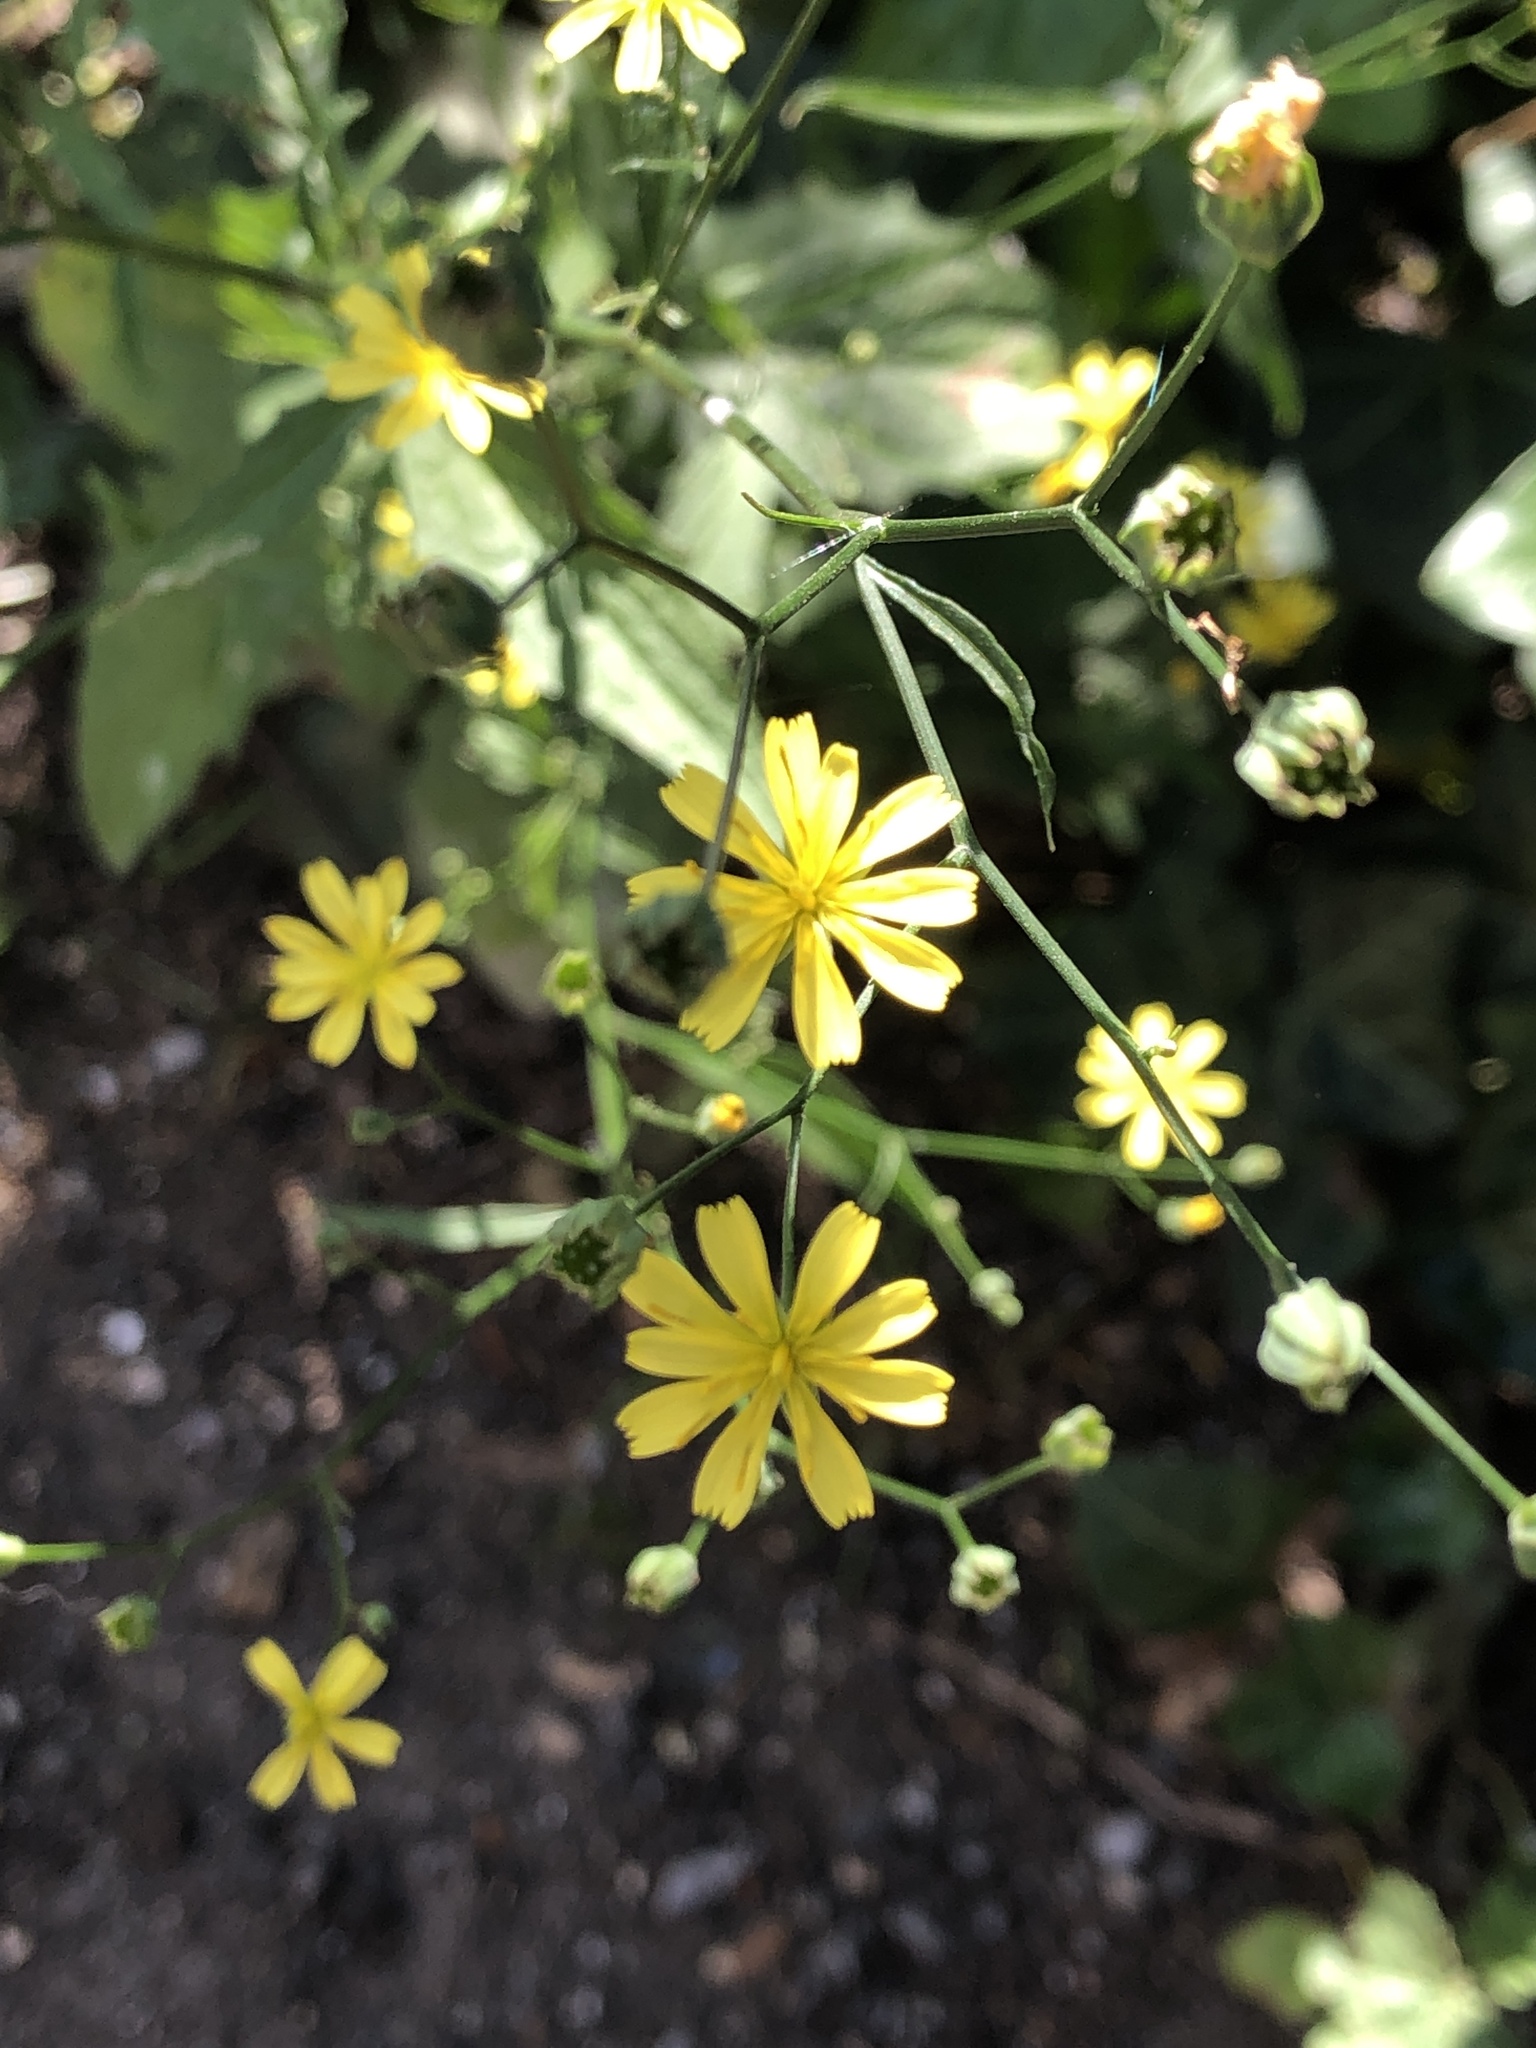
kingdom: Plantae
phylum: Tracheophyta
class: Magnoliopsida
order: Asterales
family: Asteraceae
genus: Lapsana
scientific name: Lapsana communis
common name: Nipplewort
